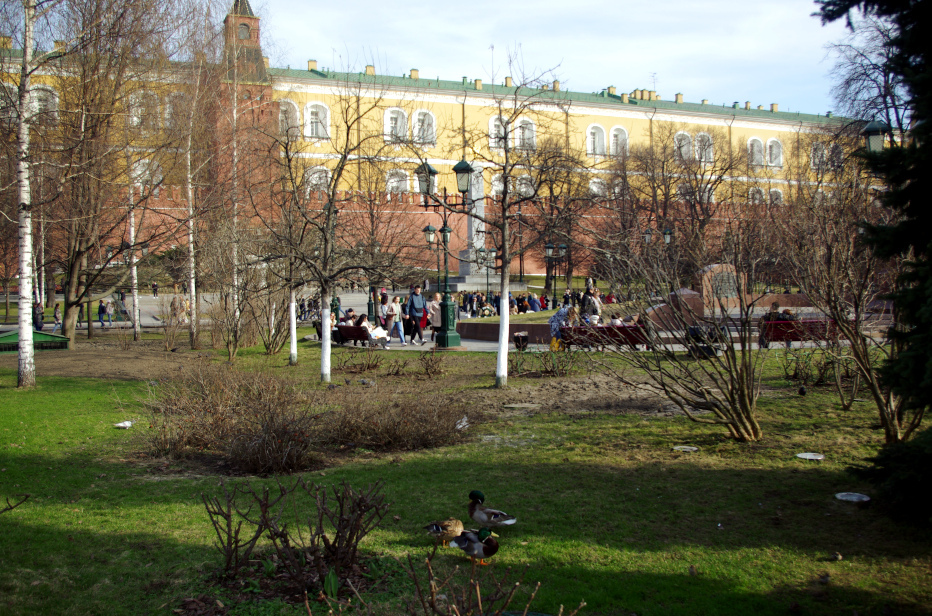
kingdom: Animalia
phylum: Chordata
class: Aves
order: Anseriformes
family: Anatidae
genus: Anas
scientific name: Anas platyrhynchos
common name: Mallard
